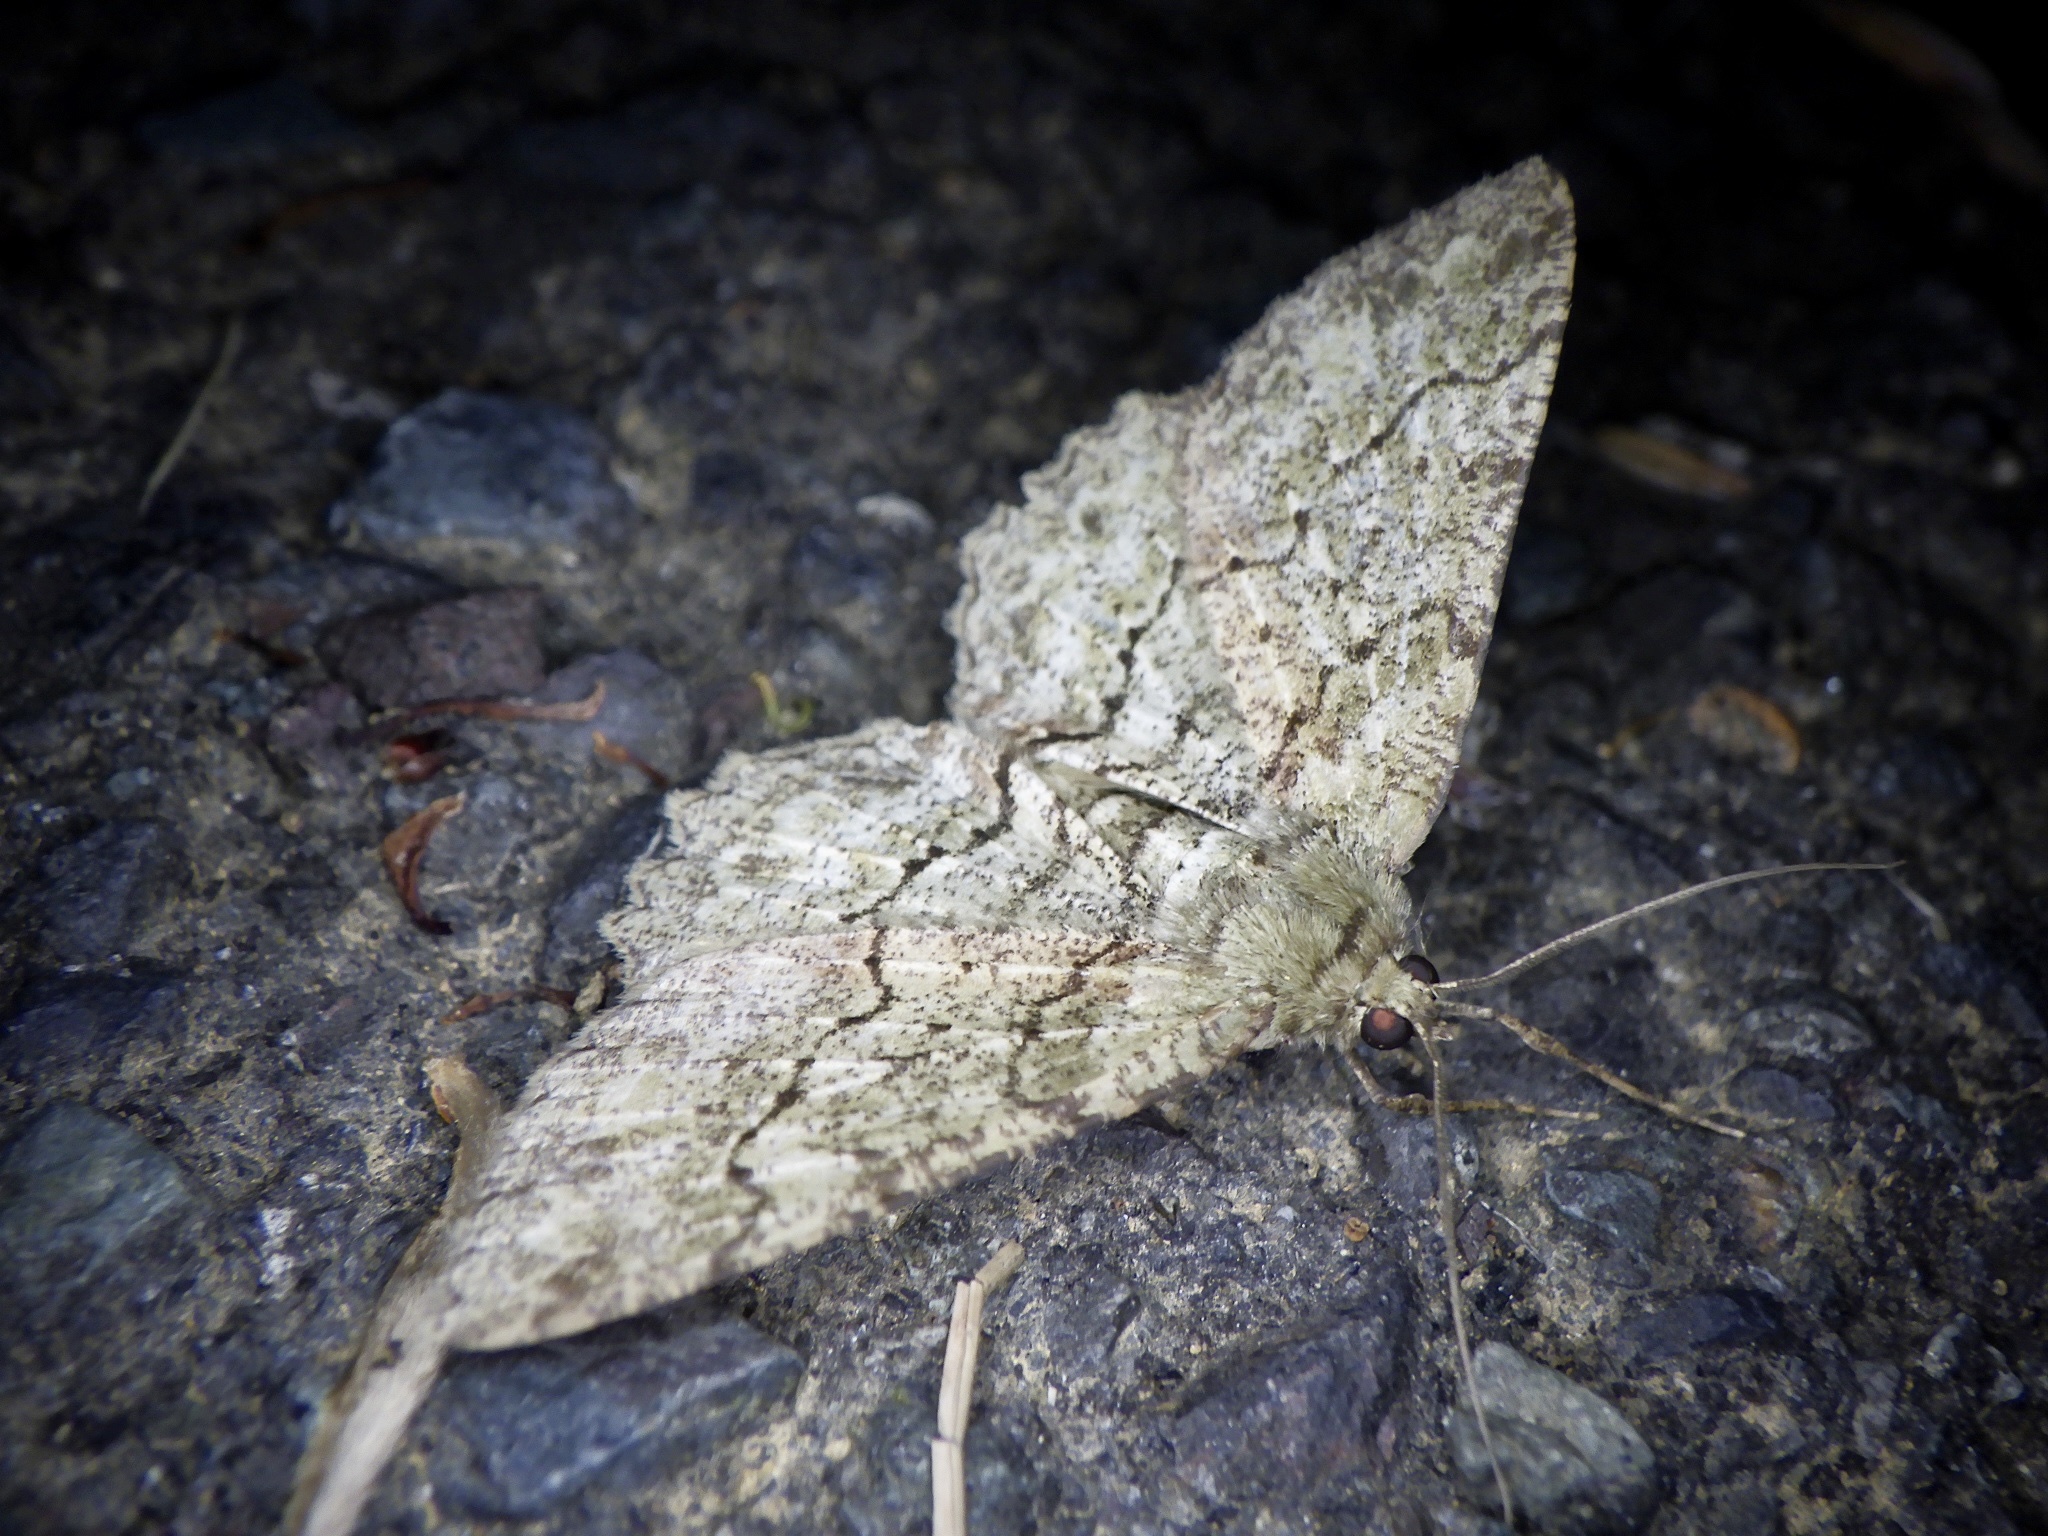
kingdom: Animalia
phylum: Arthropoda
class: Insecta
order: Lepidoptera
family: Geometridae
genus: Paradarisa
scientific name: Paradarisa chloauges
